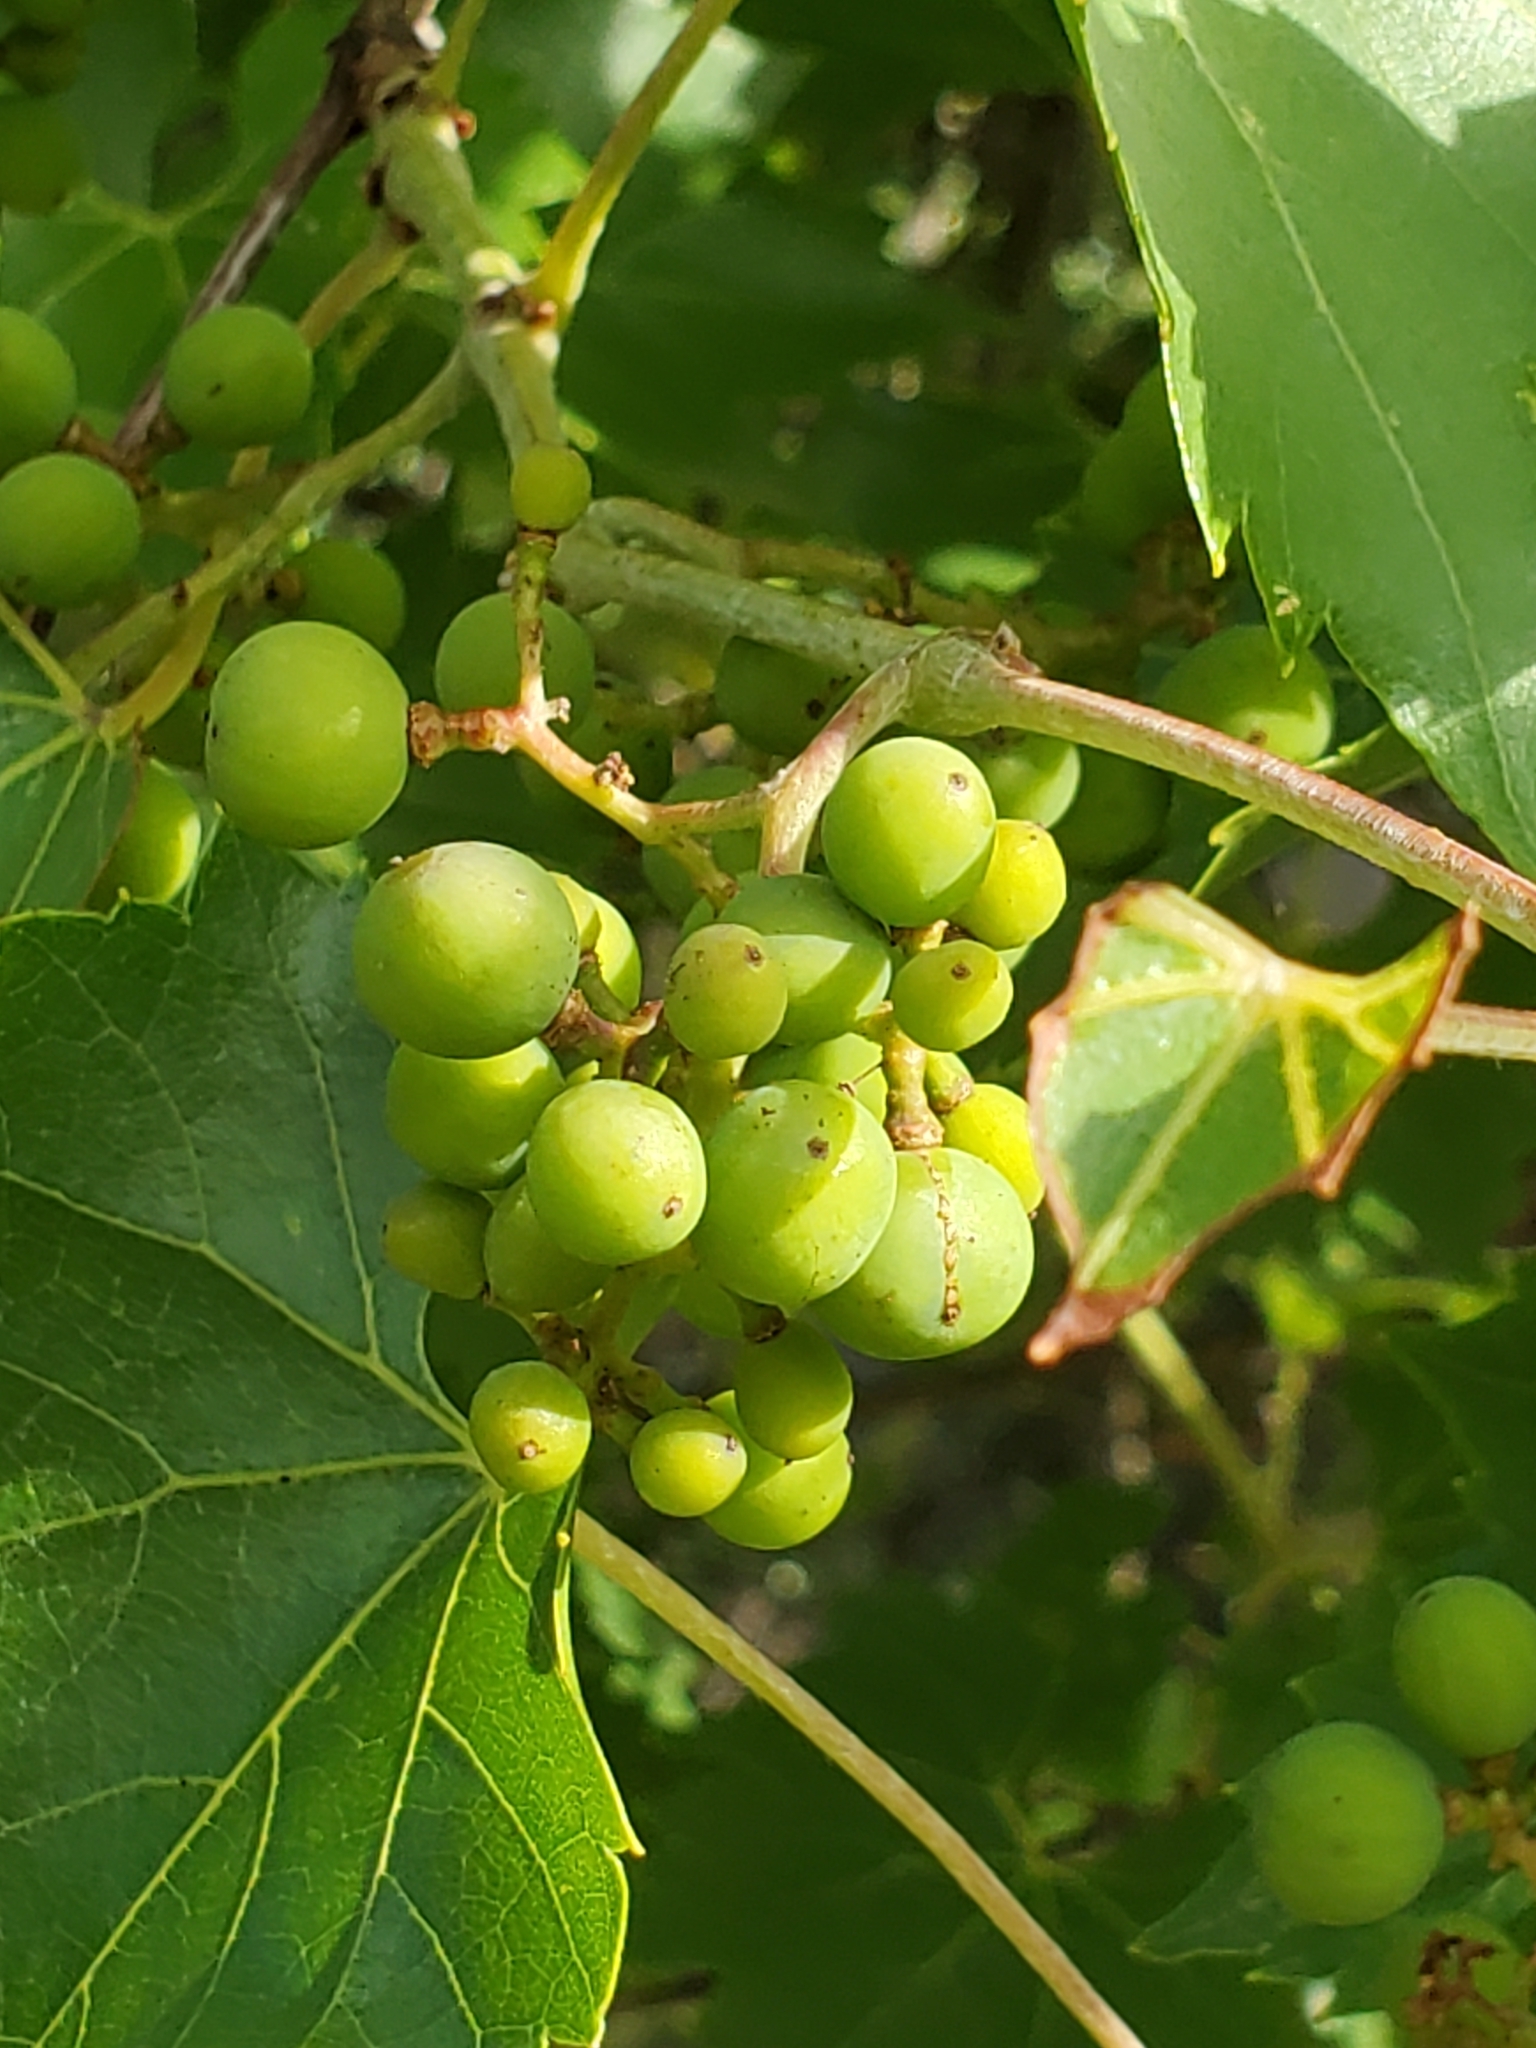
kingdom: Plantae
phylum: Tracheophyta
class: Magnoliopsida
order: Vitales
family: Vitaceae
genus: Vitis
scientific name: Vitis monticola
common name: Mountain grape
